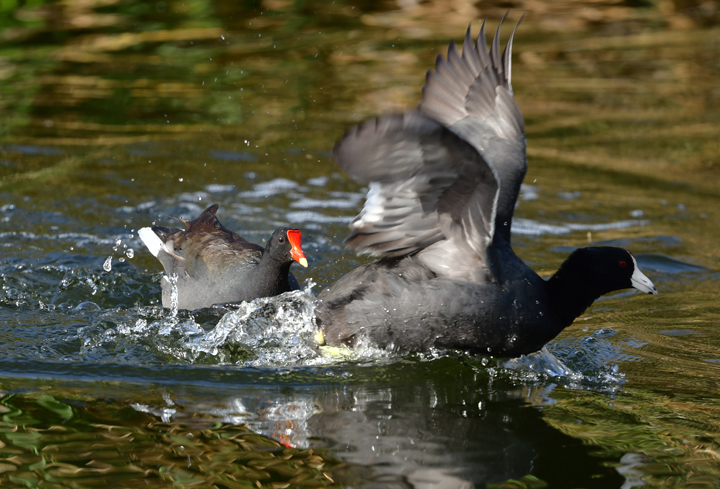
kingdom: Animalia
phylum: Chordata
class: Aves
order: Gruiformes
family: Rallidae
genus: Gallinula
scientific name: Gallinula chloropus
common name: Common moorhen
